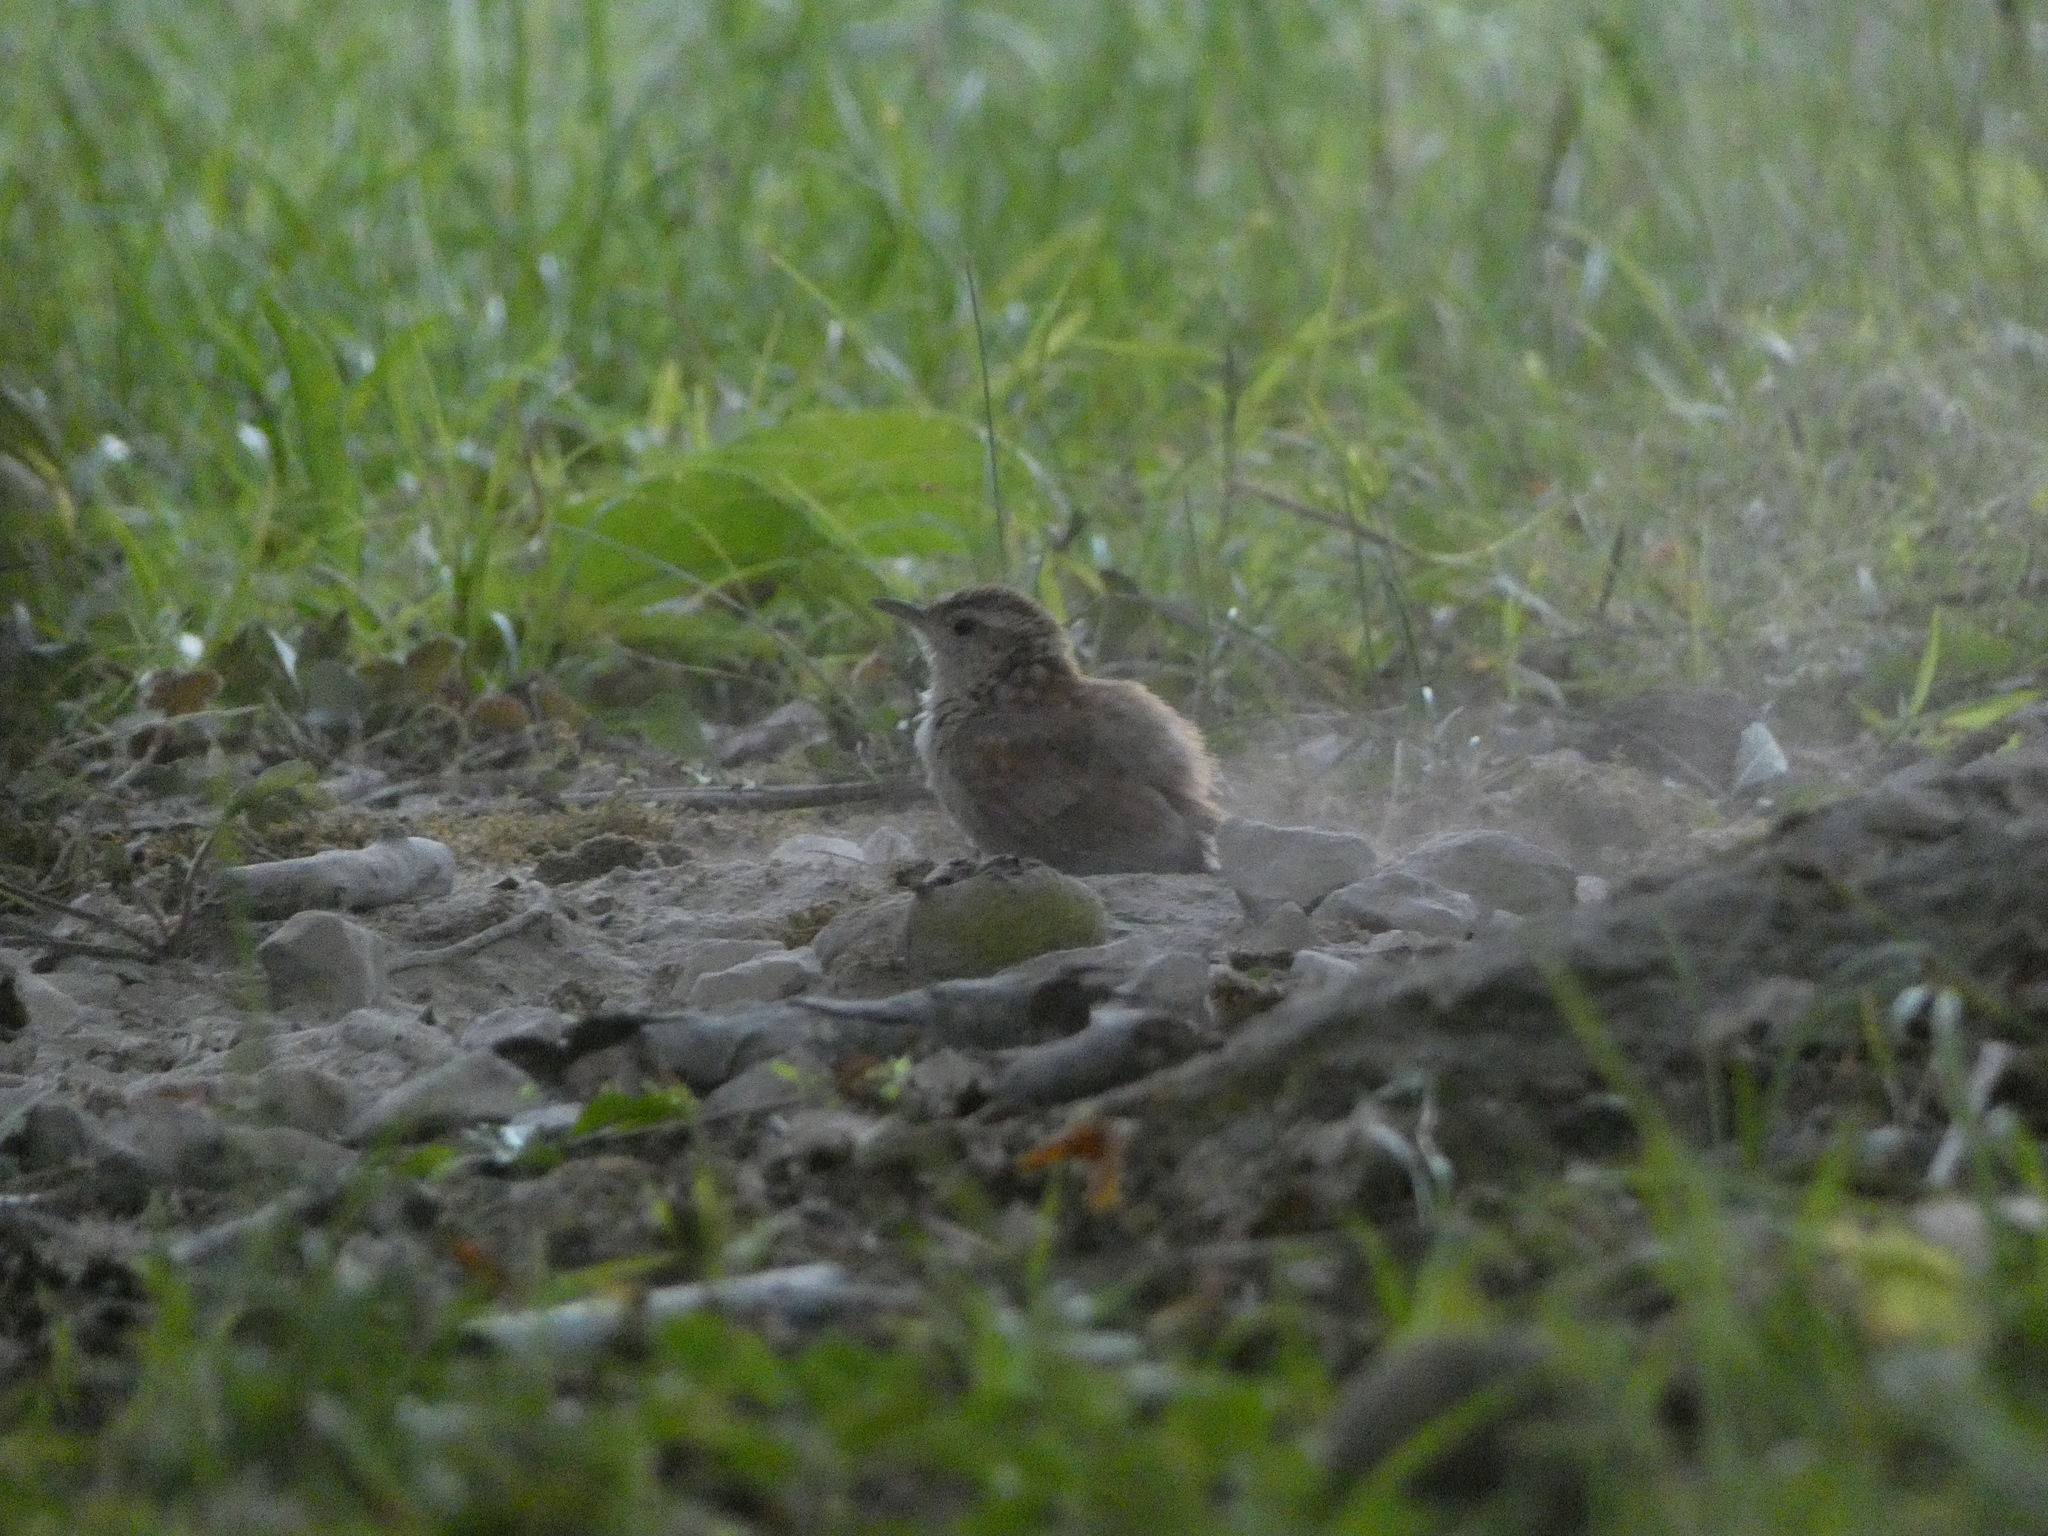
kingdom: Animalia
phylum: Chordata
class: Aves
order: Passeriformes
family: Troglodytidae
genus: Thryothorus
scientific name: Thryothorus ludovicianus
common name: Carolina wren
